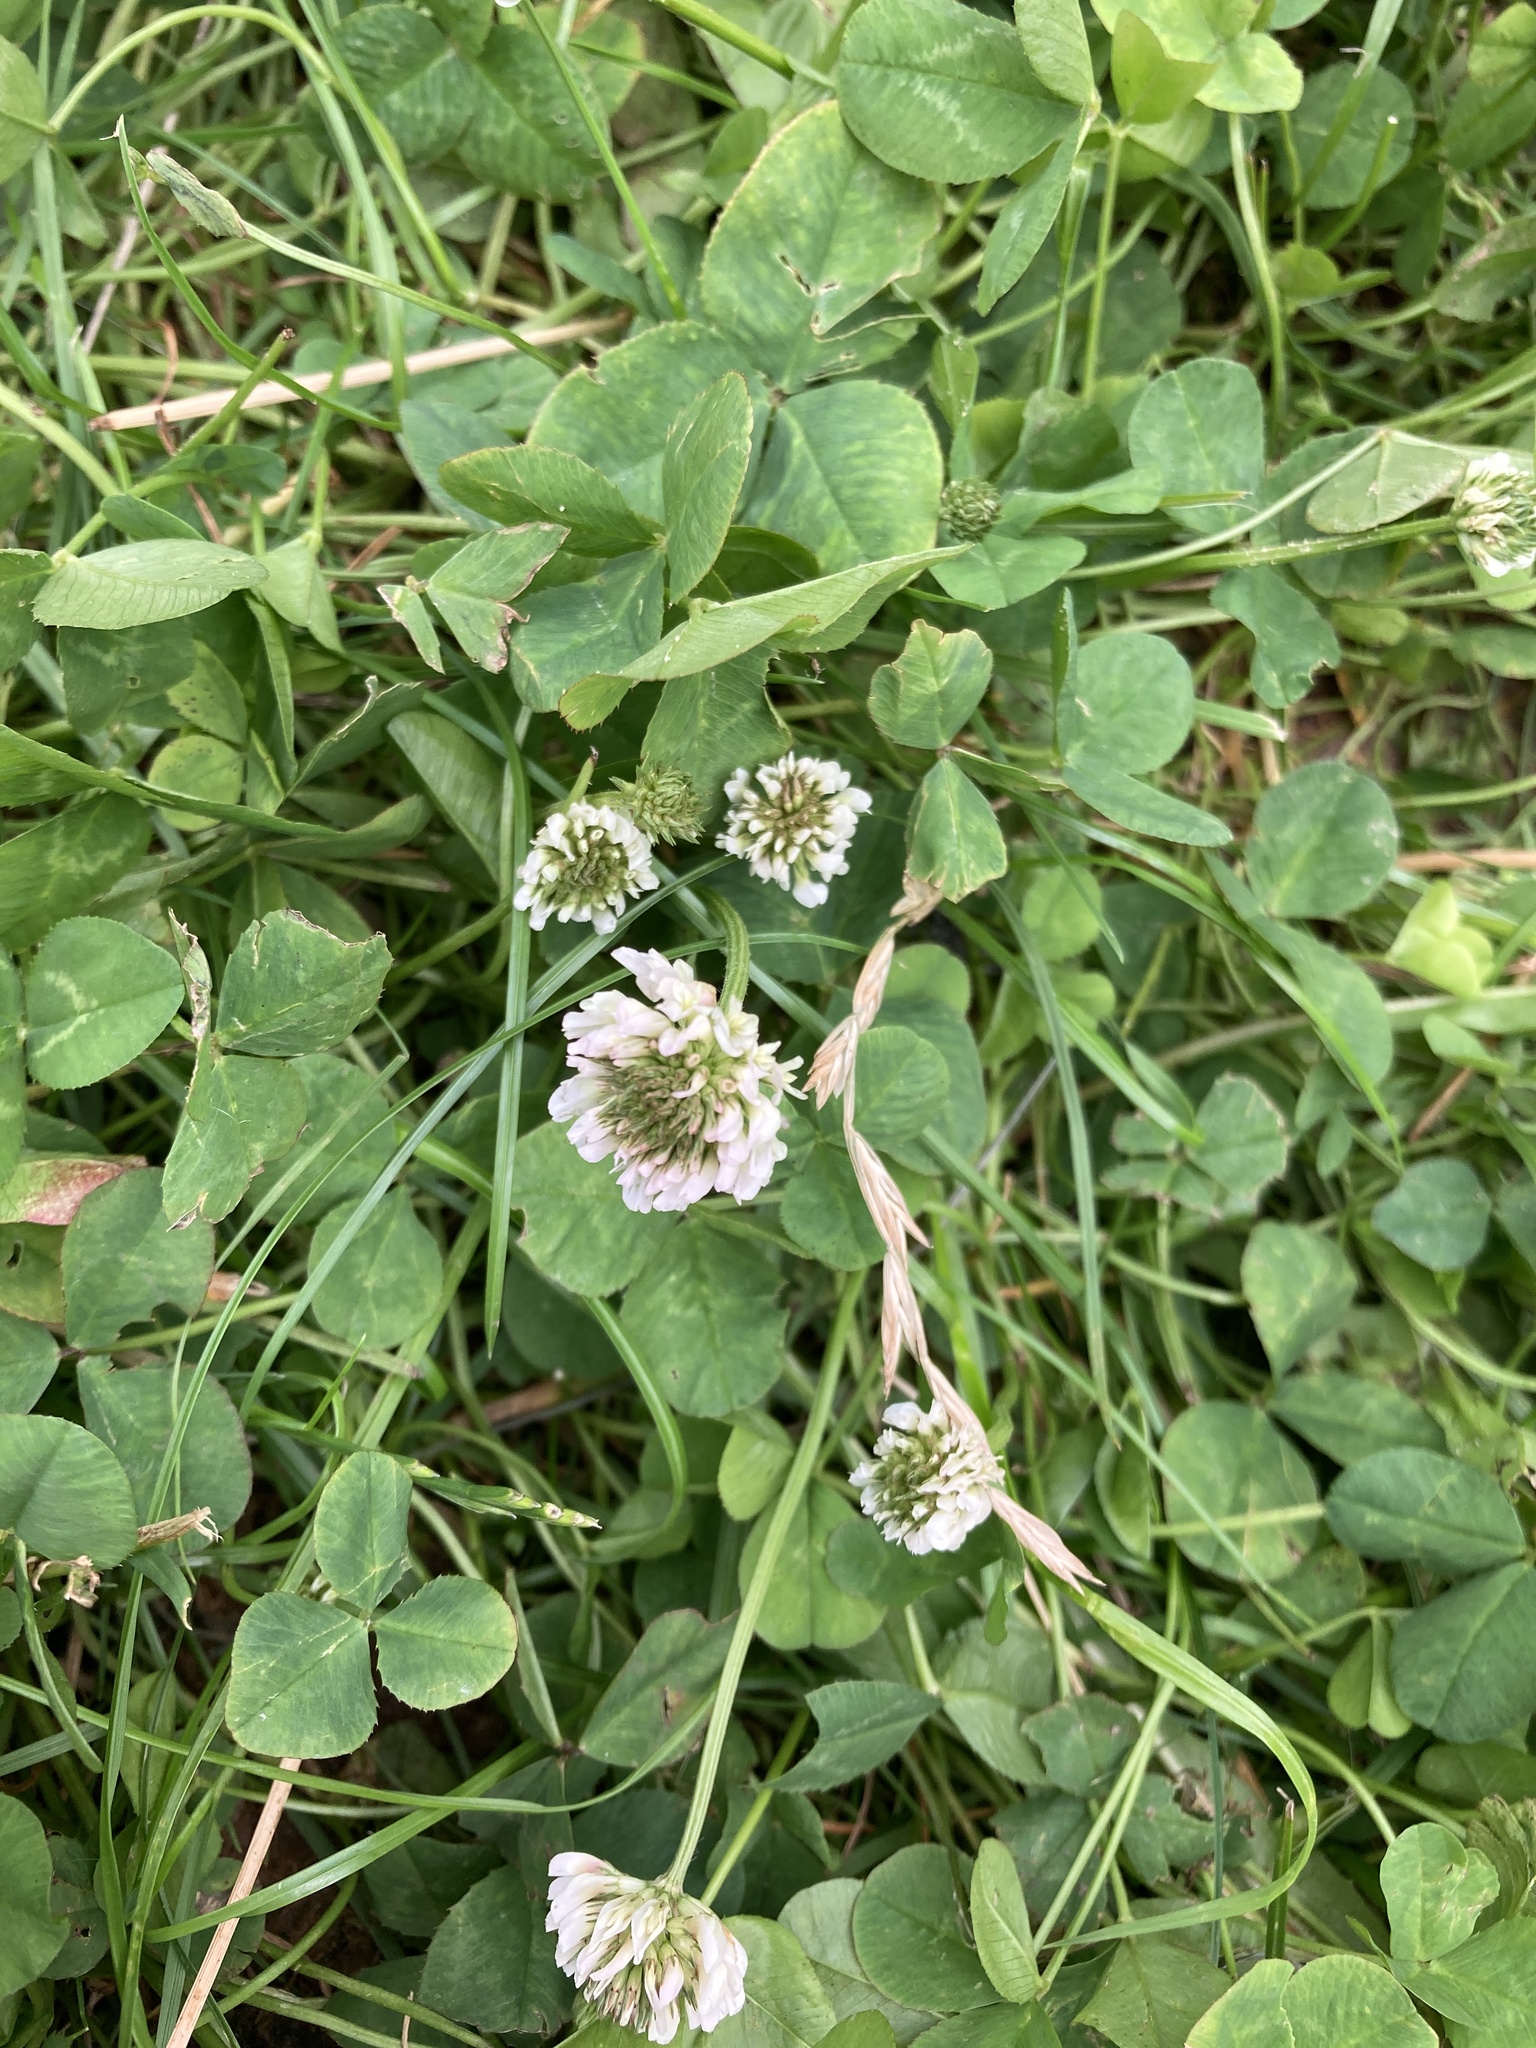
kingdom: Plantae
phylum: Tracheophyta
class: Magnoliopsida
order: Fabales
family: Fabaceae
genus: Trifolium
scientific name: Trifolium repens
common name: White clover
